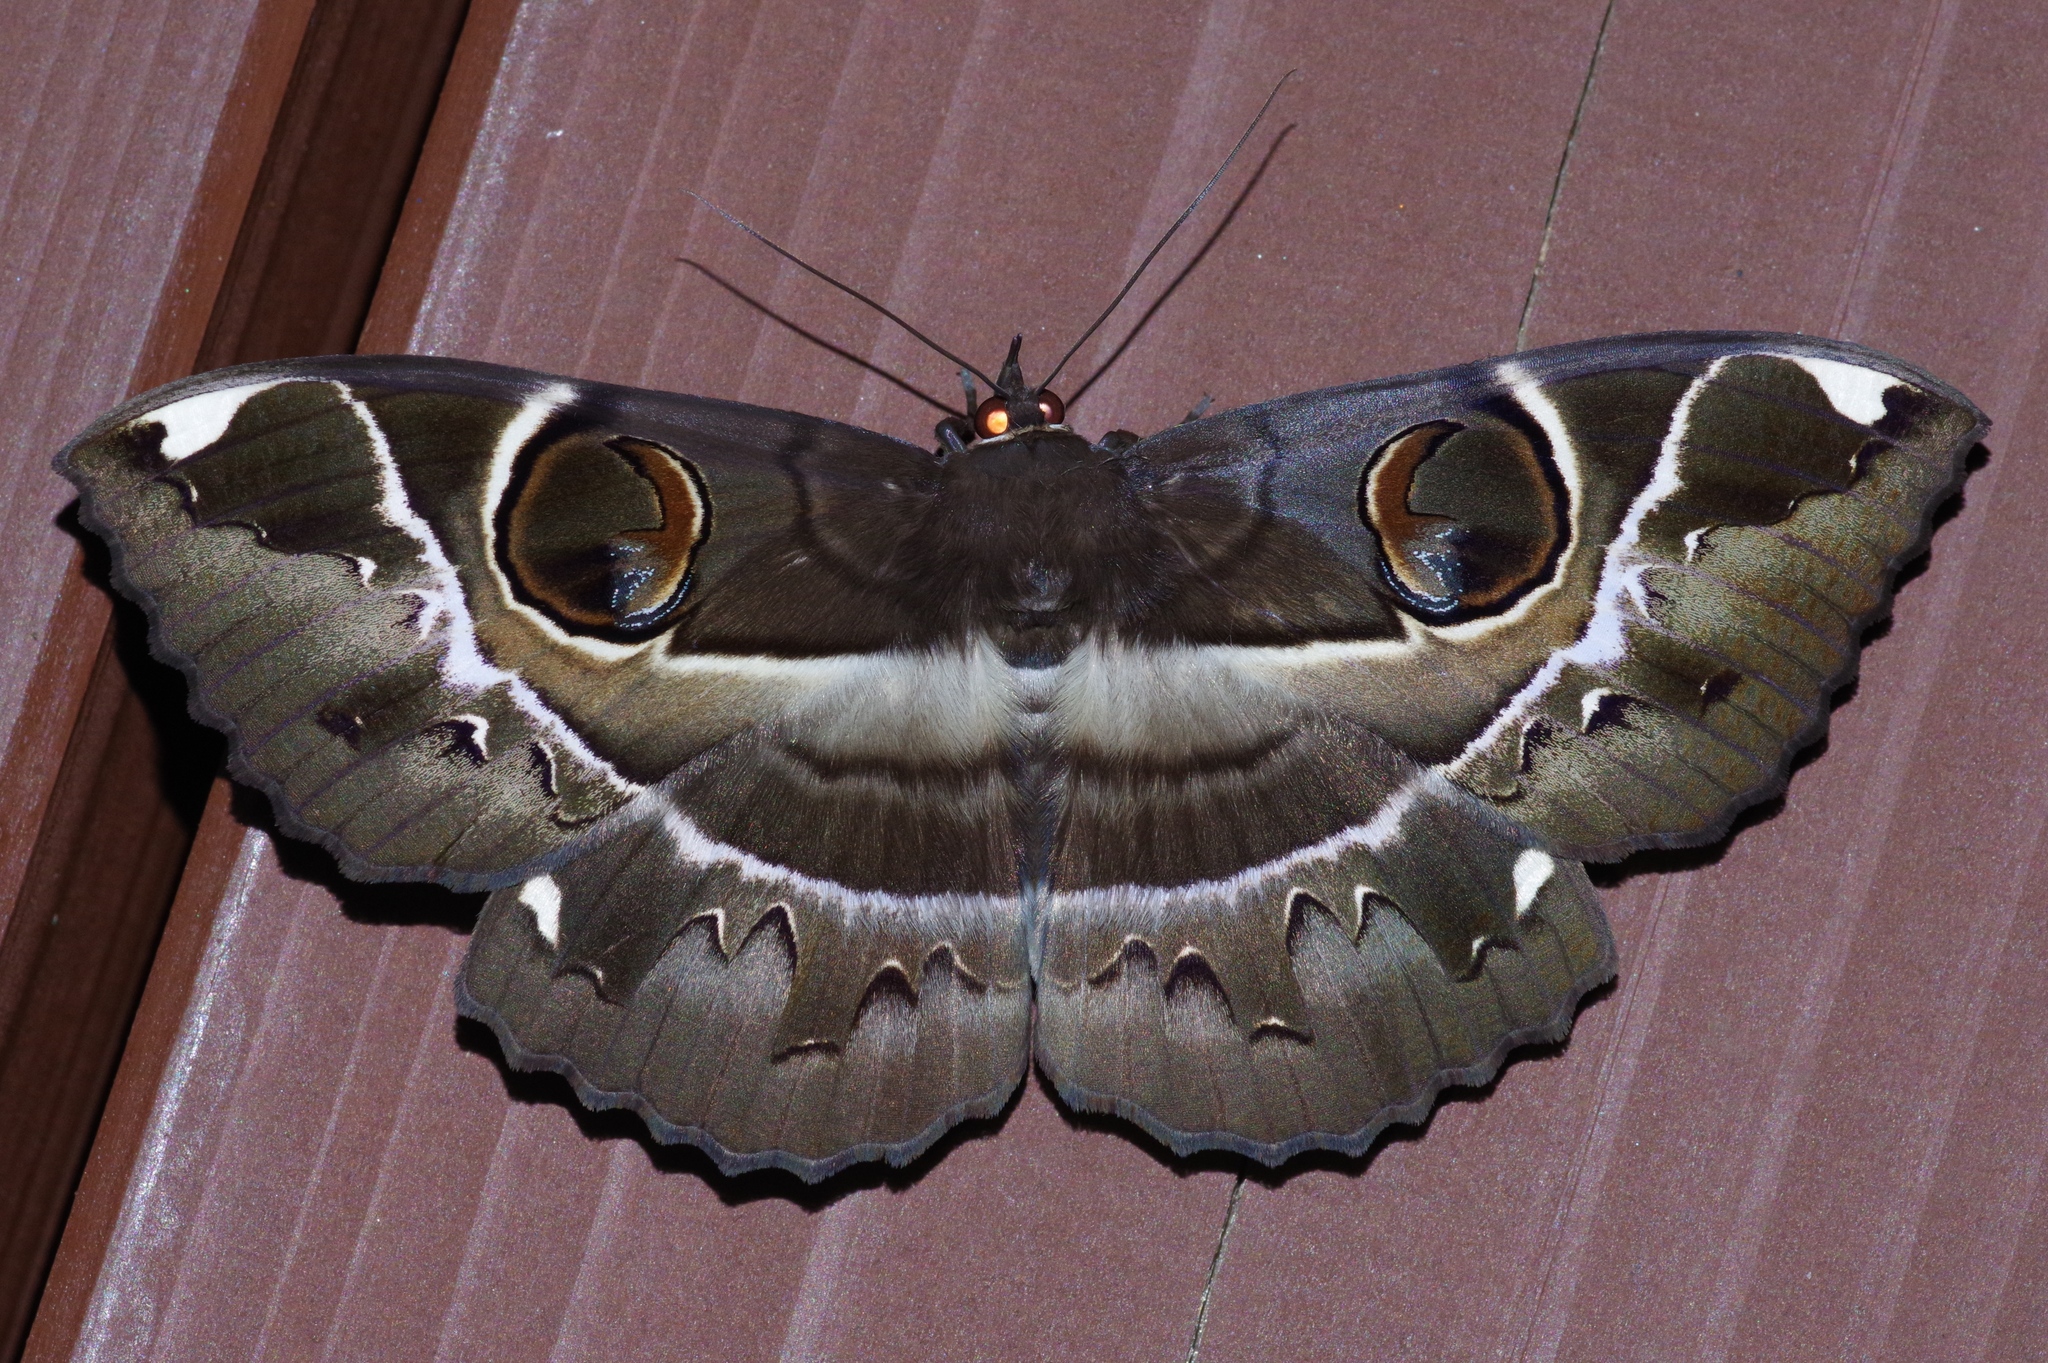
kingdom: Animalia
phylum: Arthropoda
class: Insecta
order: Lepidoptera
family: Erebidae
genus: Erebus
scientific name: Erebus ephesperis
